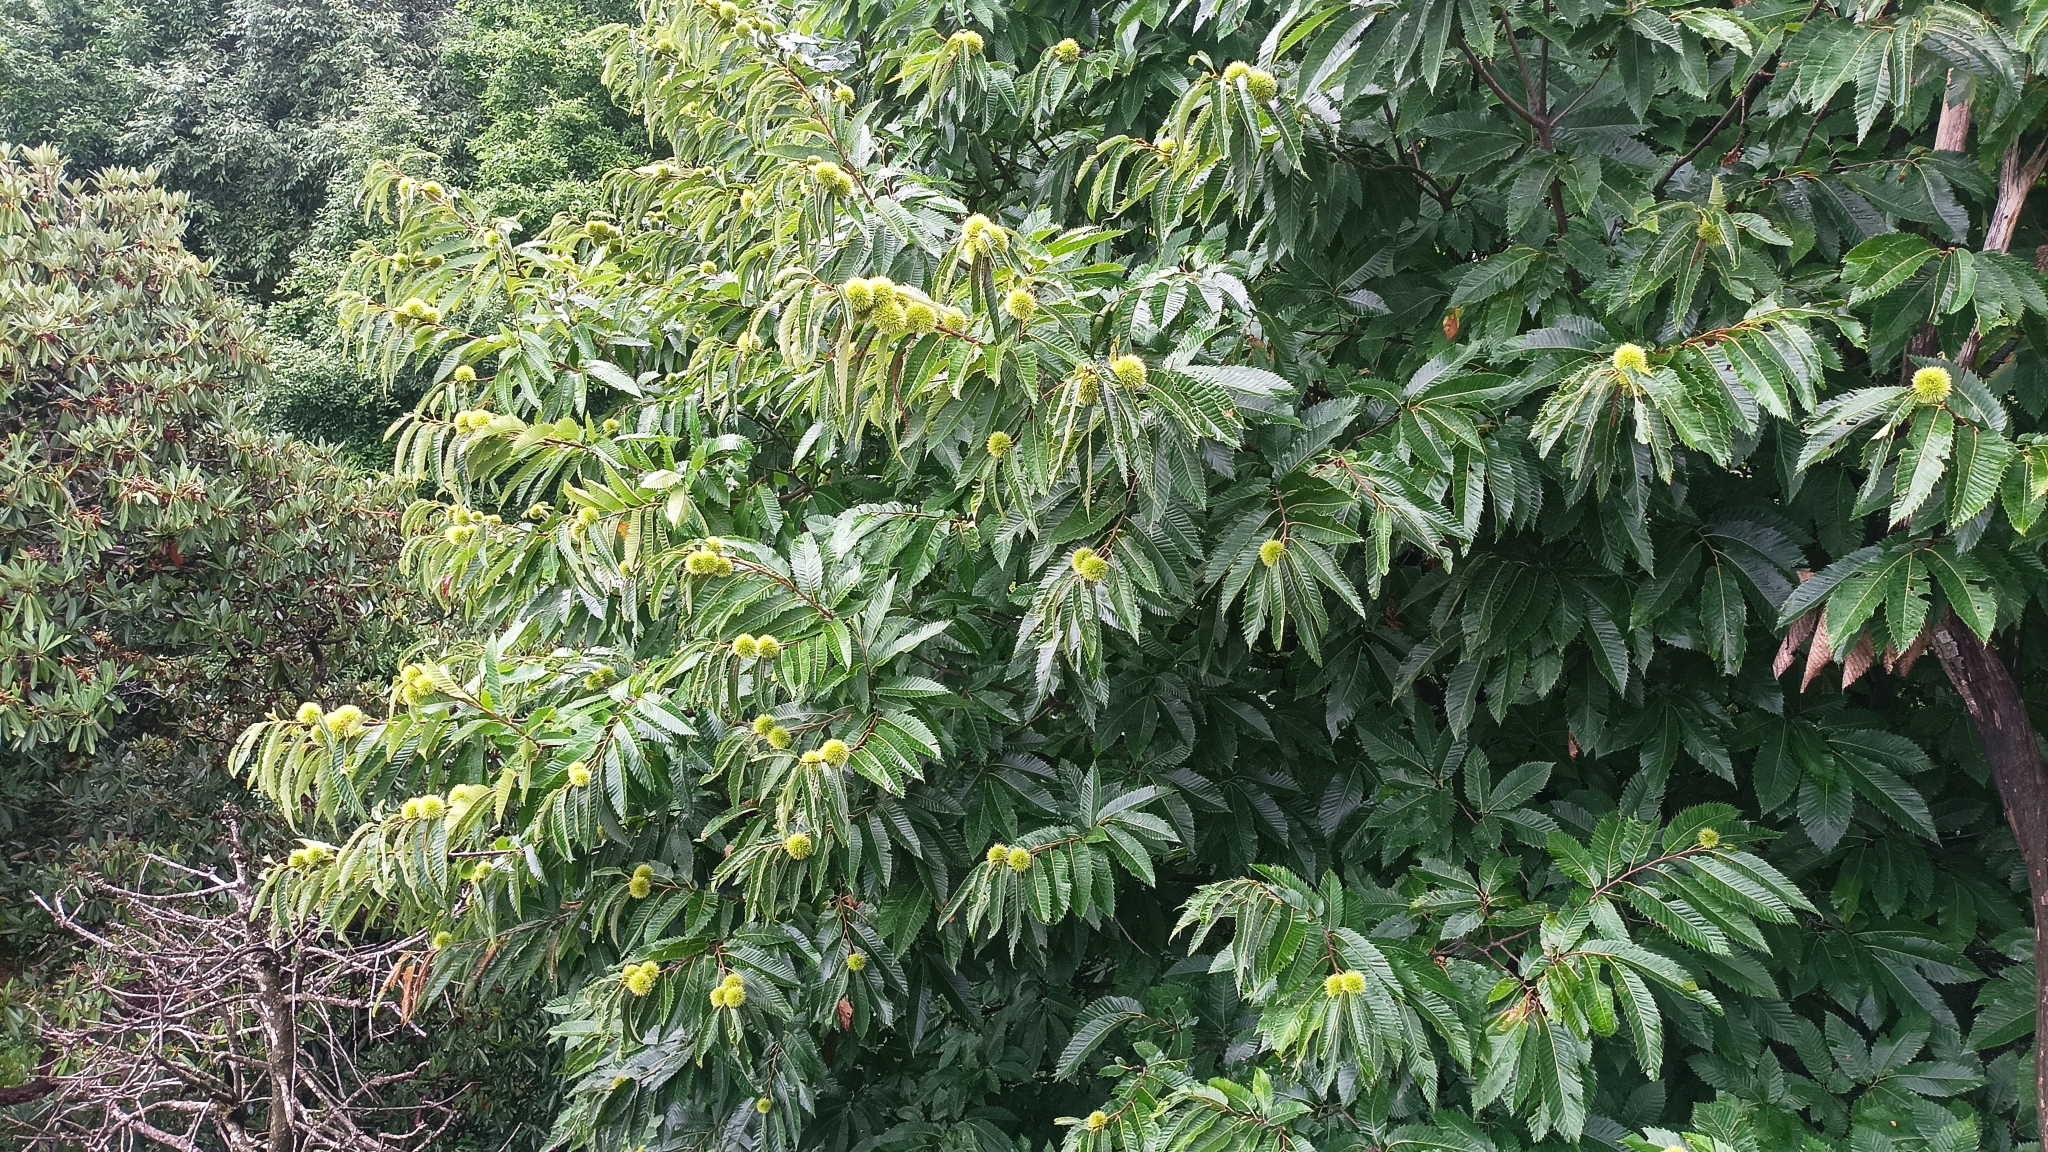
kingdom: Plantae
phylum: Tracheophyta
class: Magnoliopsida
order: Fagales
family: Fagaceae
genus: Castanea
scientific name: Castanea sativa
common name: Sweet chestnut
